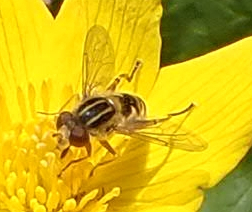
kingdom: Animalia
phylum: Arthropoda
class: Insecta
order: Diptera
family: Syrphidae
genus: Anasimyia
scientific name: Anasimyia anausis
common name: Moon-shaped swamp fly
